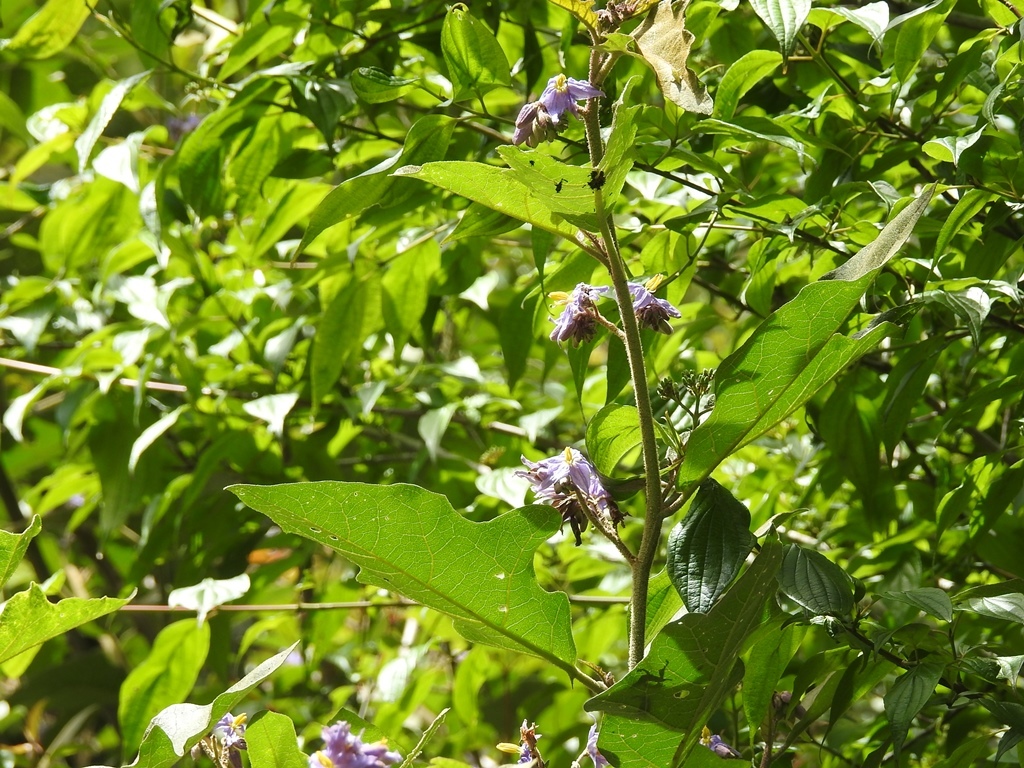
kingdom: Plantae
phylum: Tracheophyta
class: Magnoliopsida
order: Solanales
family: Solanaceae
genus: Solanum
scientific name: Solanum rude-pannum
